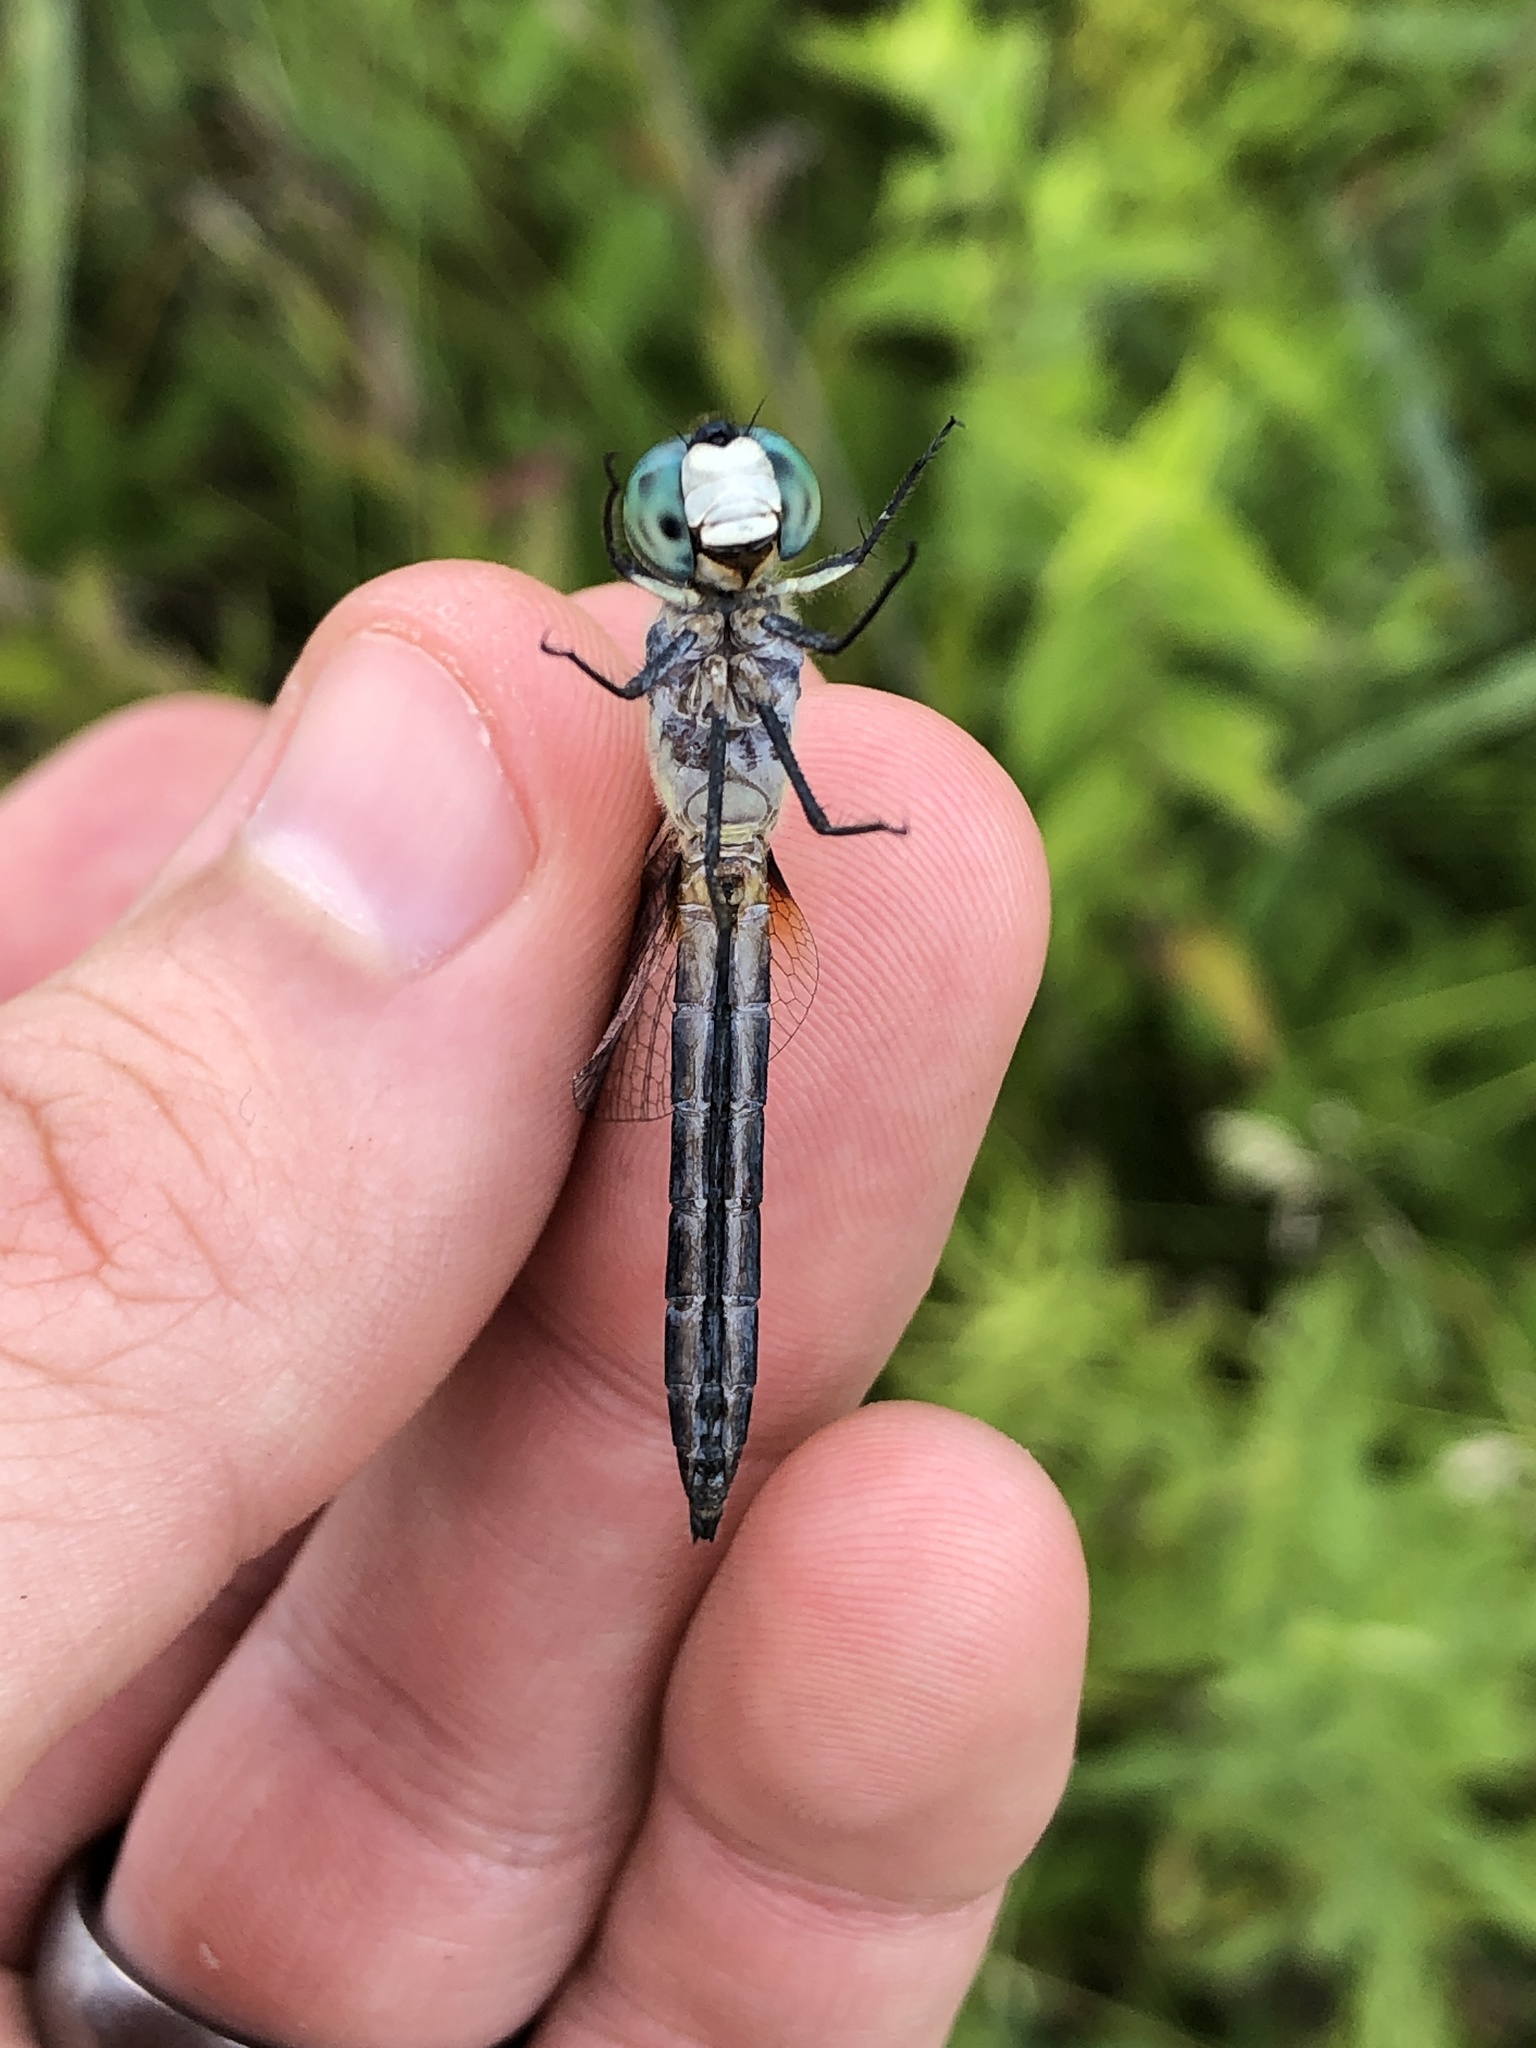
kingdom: Animalia
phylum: Arthropoda
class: Insecta
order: Odonata
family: Libellulidae
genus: Pachydiplax
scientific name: Pachydiplax longipennis
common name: Blue dasher
